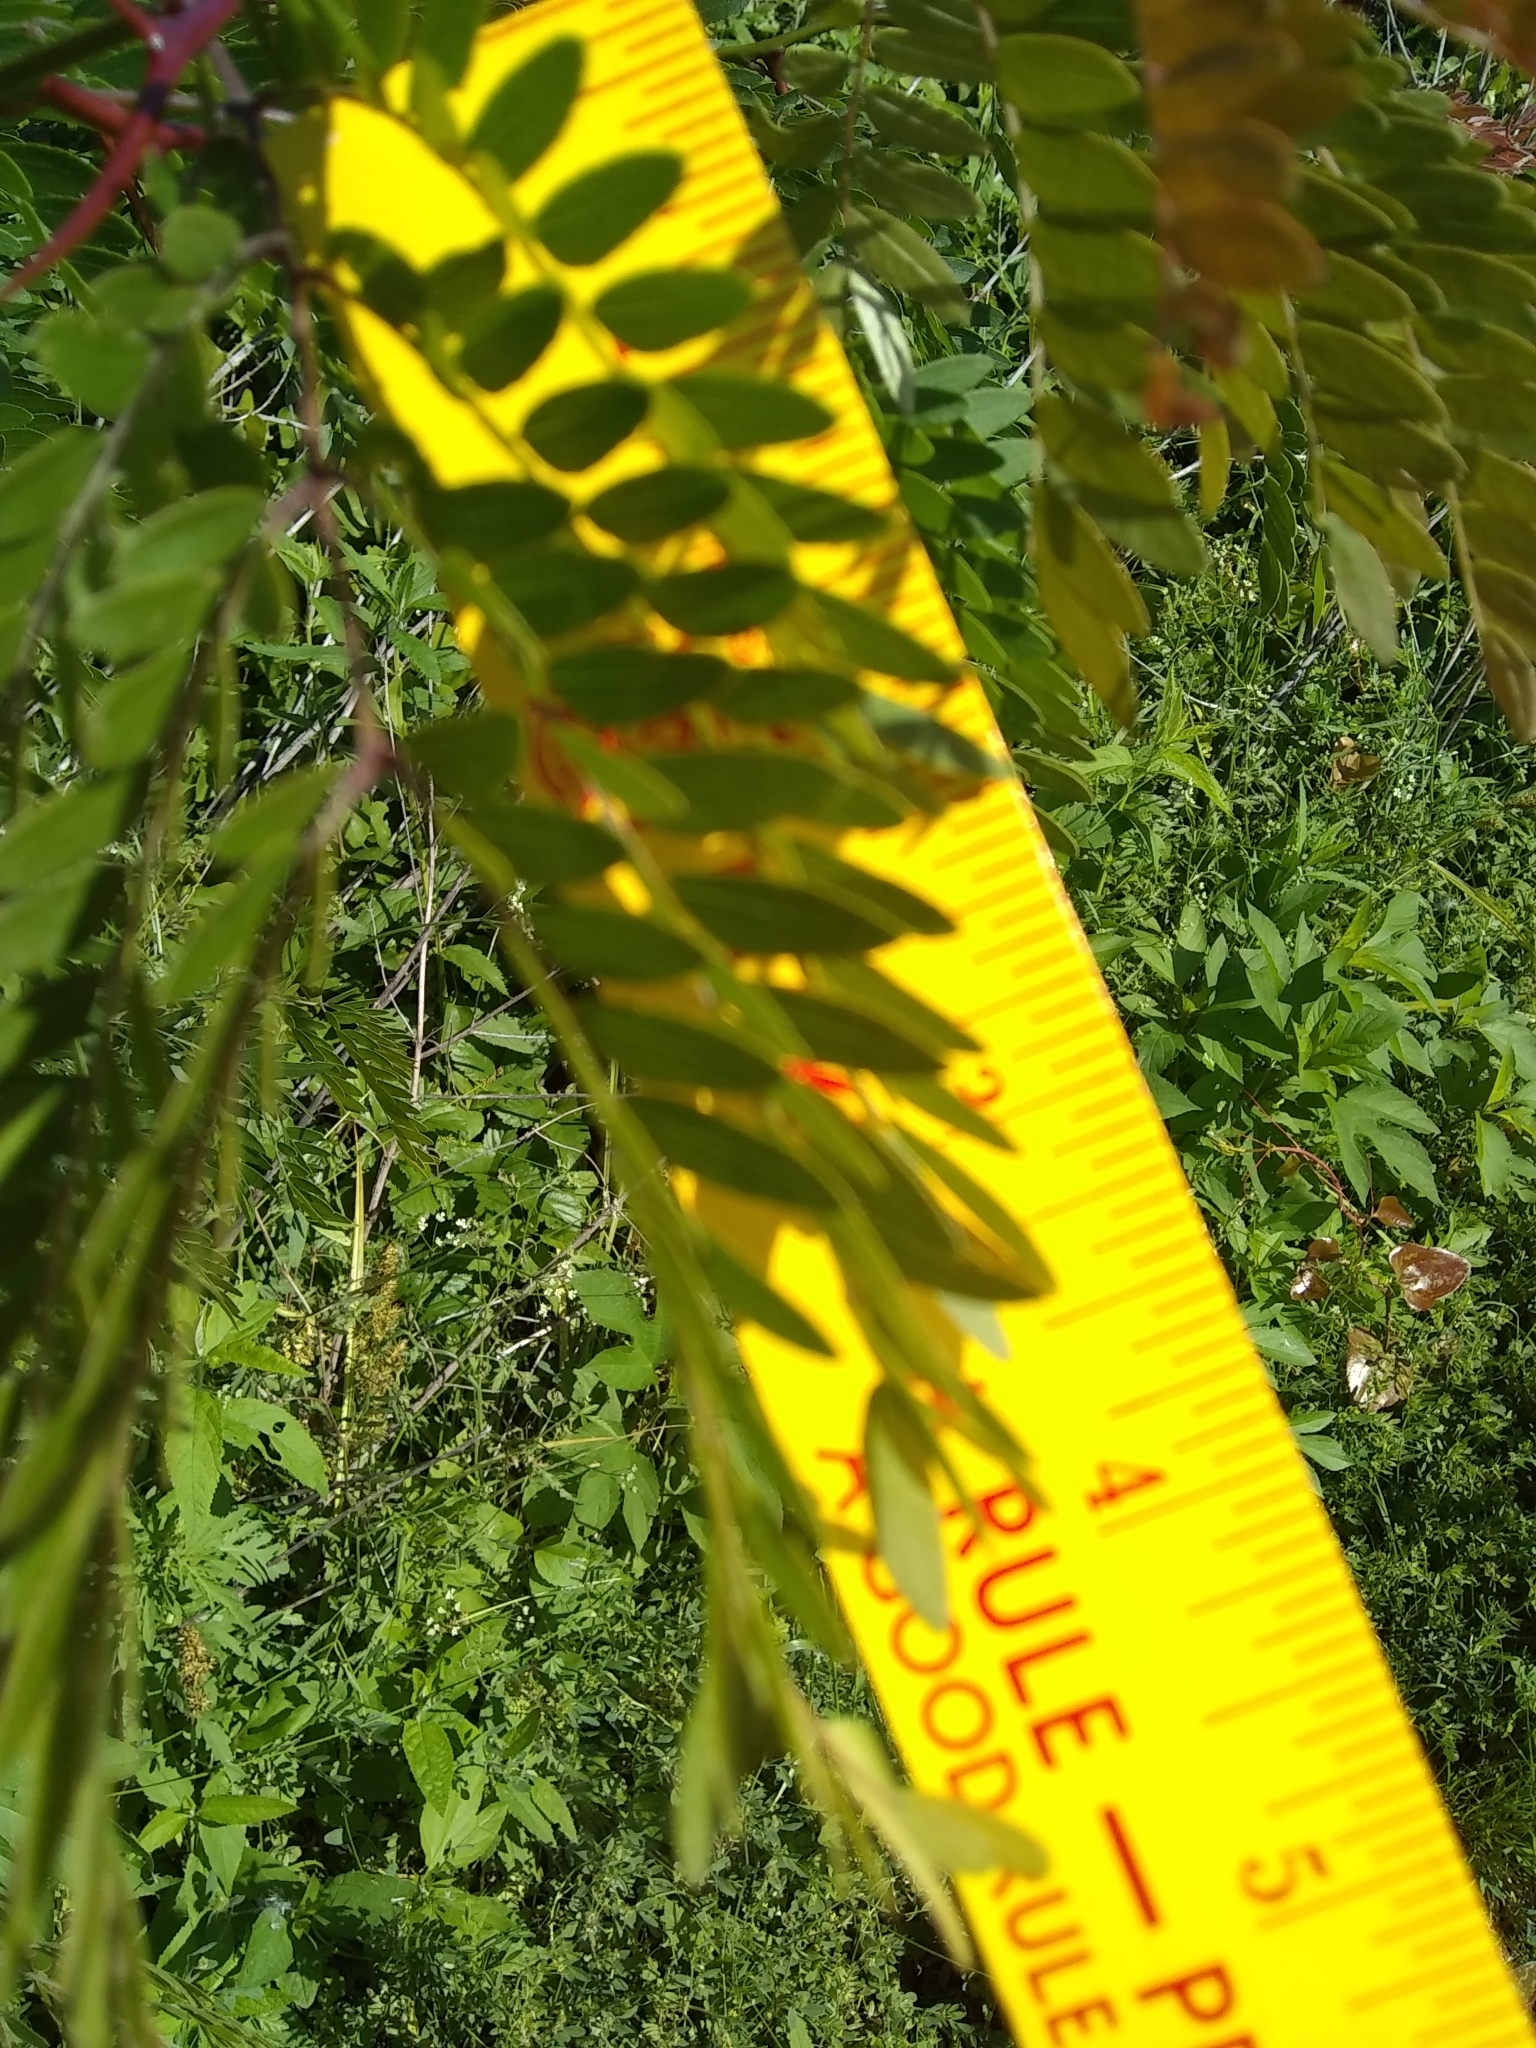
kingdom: Plantae
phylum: Tracheophyta
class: Magnoliopsida
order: Fabales
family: Fabaceae
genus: Gleditsia
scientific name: Gleditsia triacanthos
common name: Common honeylocust
